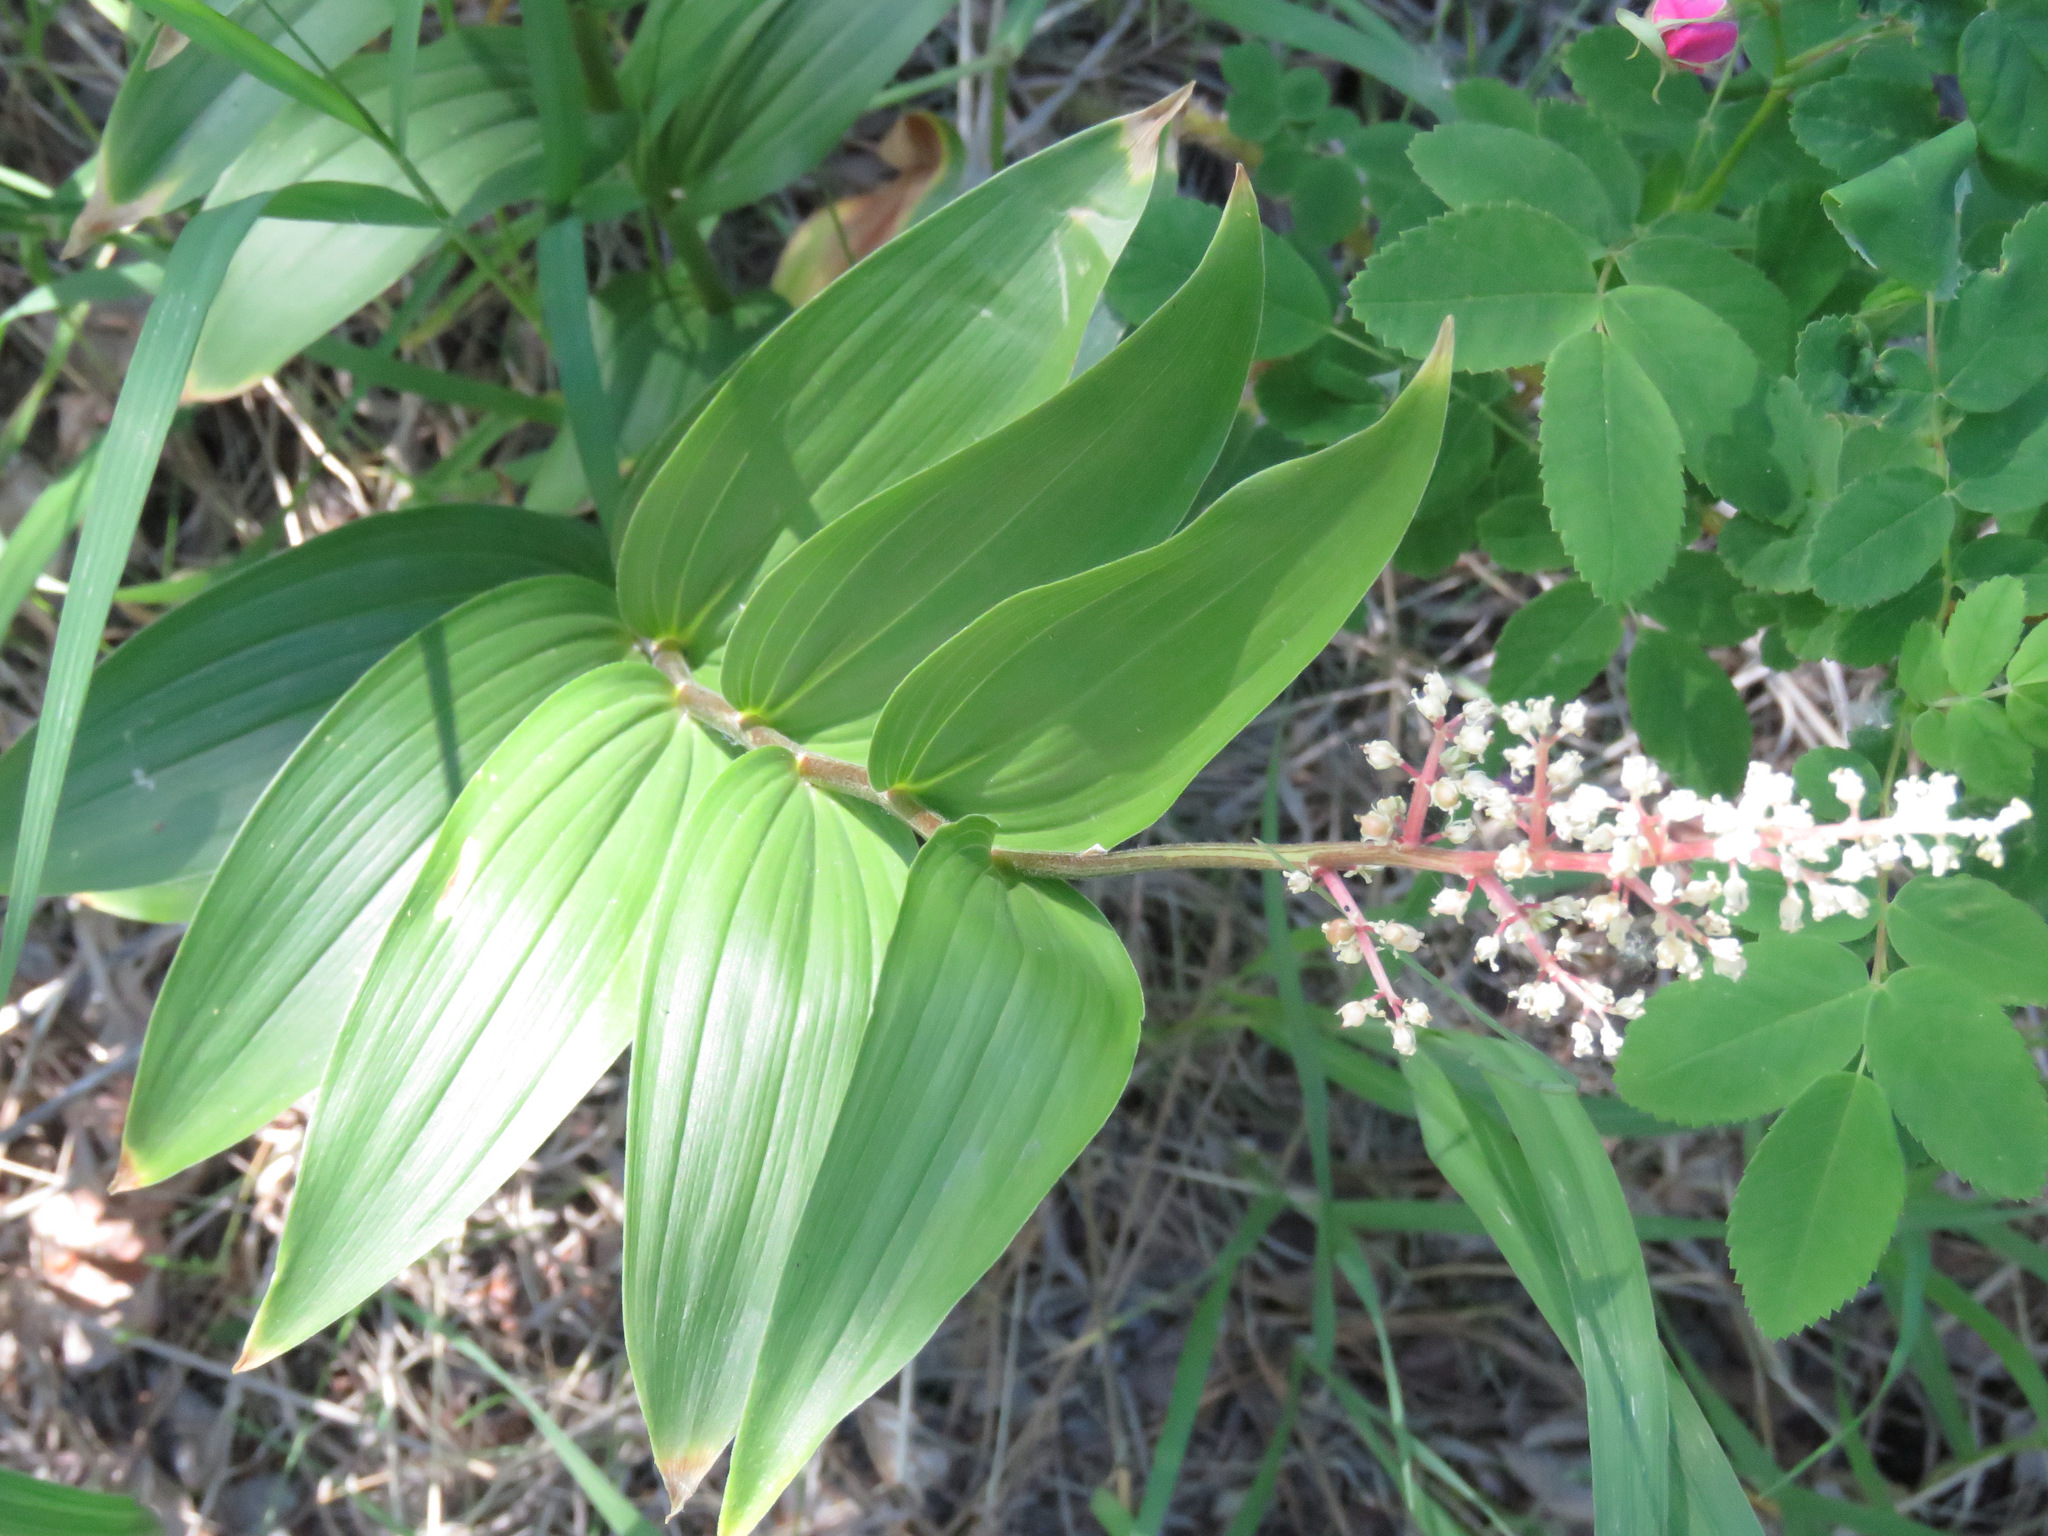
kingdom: Plantae
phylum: Tracheophyta
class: Liliopsida
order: Asparagales
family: Asparagaceae
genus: Maianthemum
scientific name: Maianthemum racemosum
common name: False spikenard
